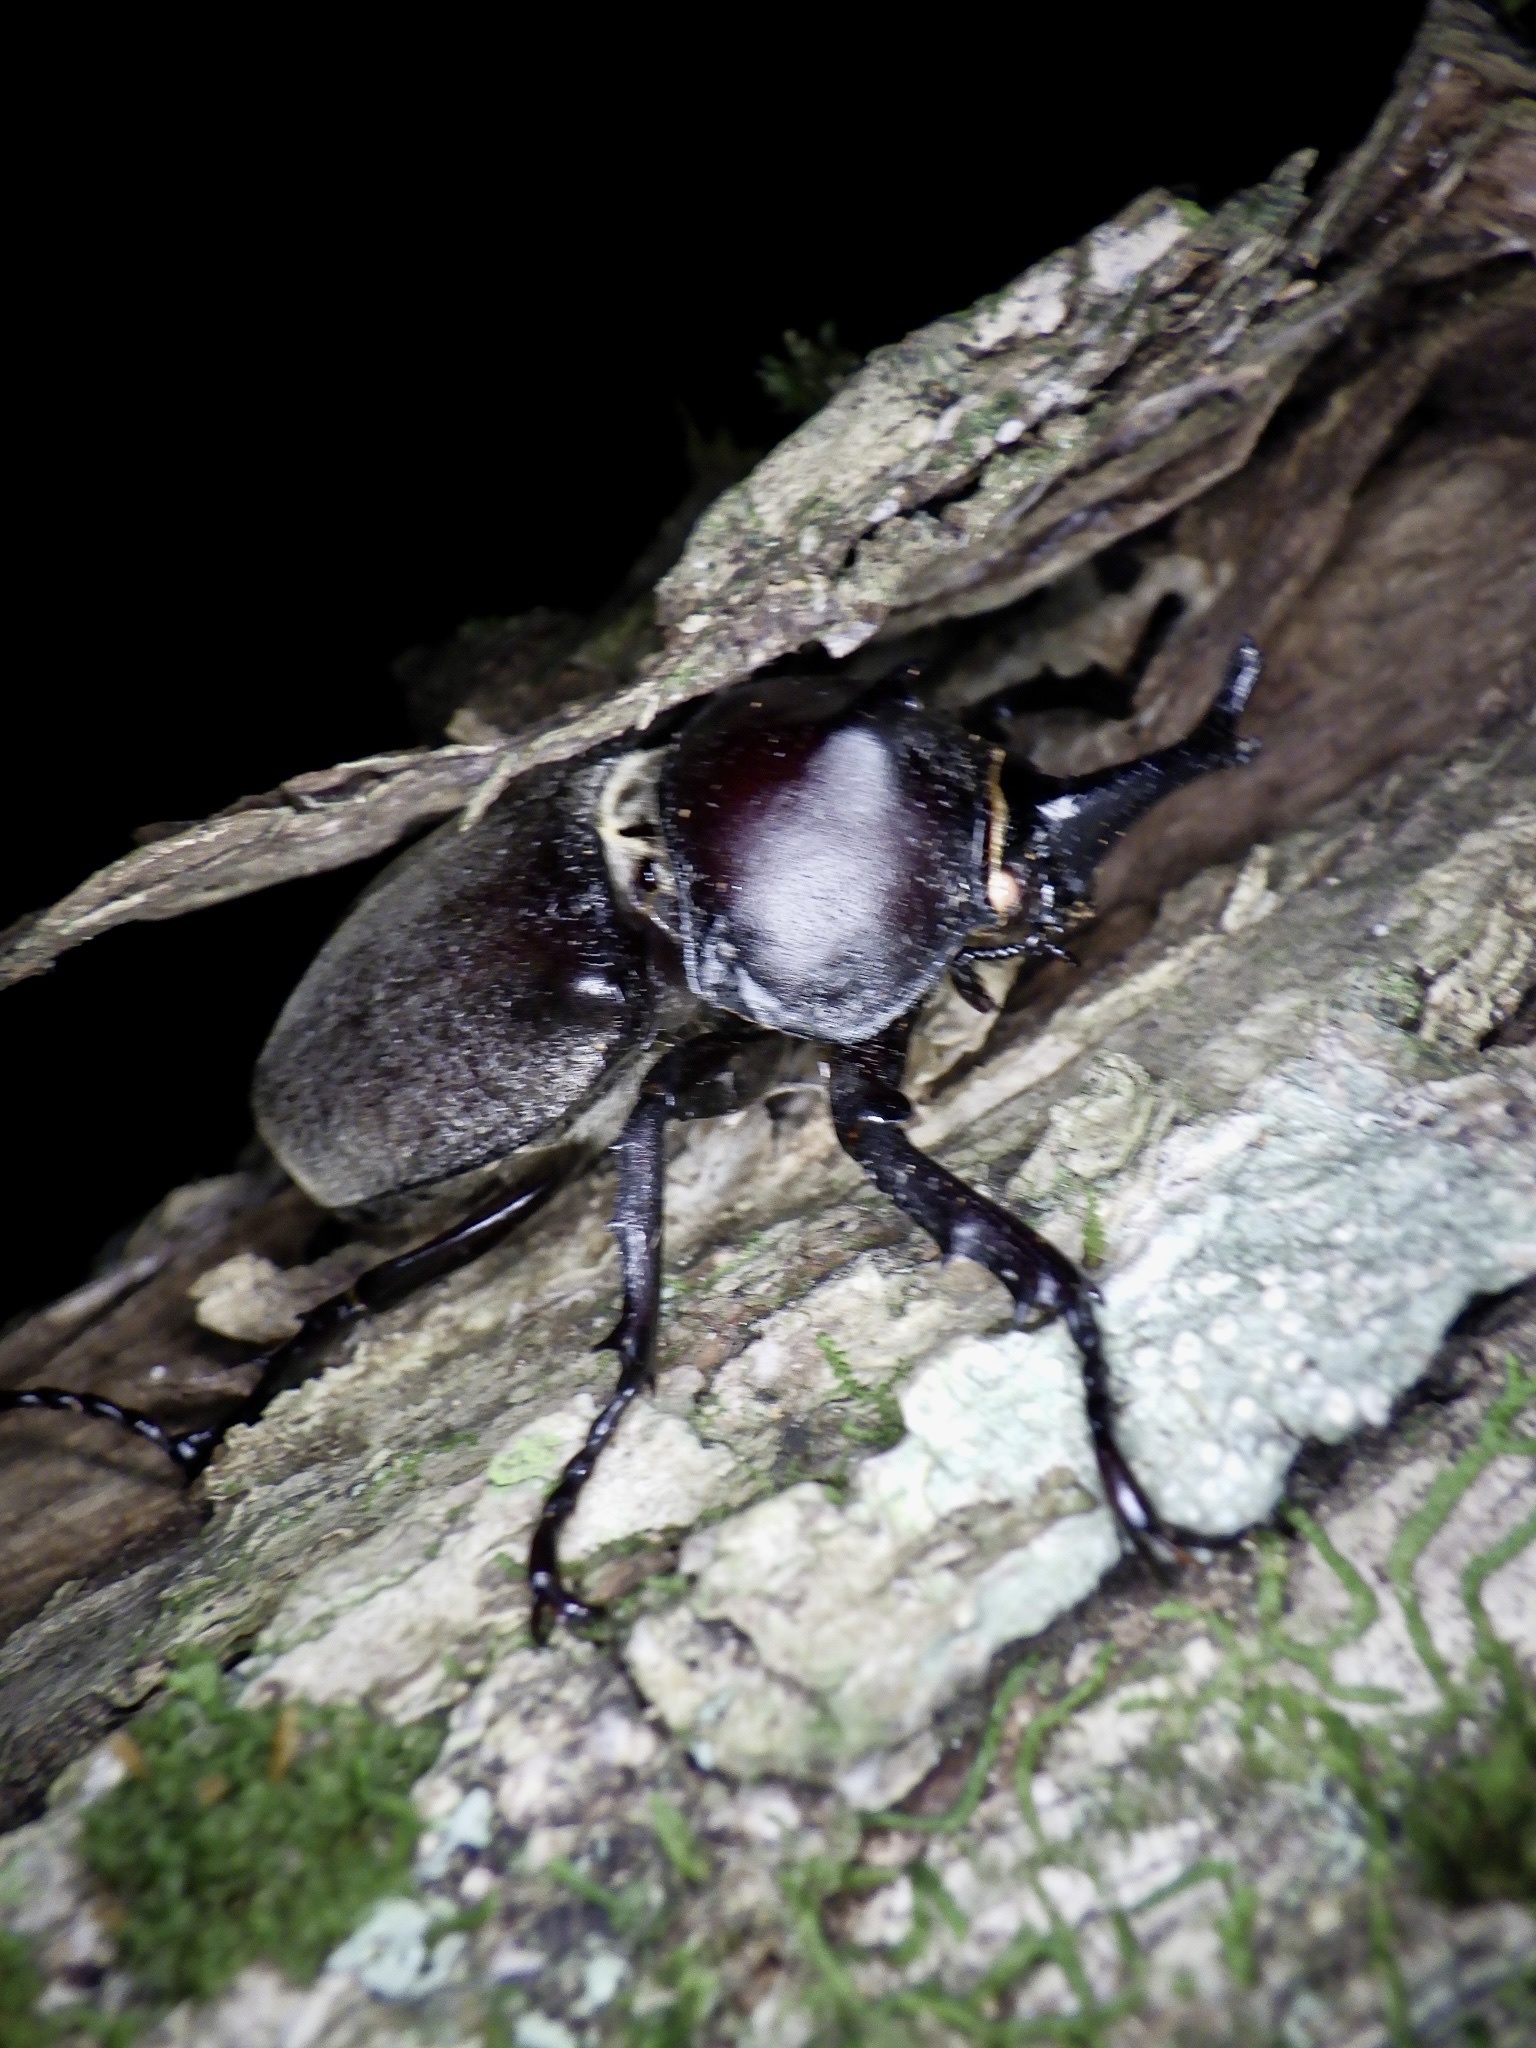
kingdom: Animalia
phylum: Arthropoda
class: Insecta
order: Coleoptera
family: Scarabaeidae
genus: Trypoxylus
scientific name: Trypoxylus dichotomus
